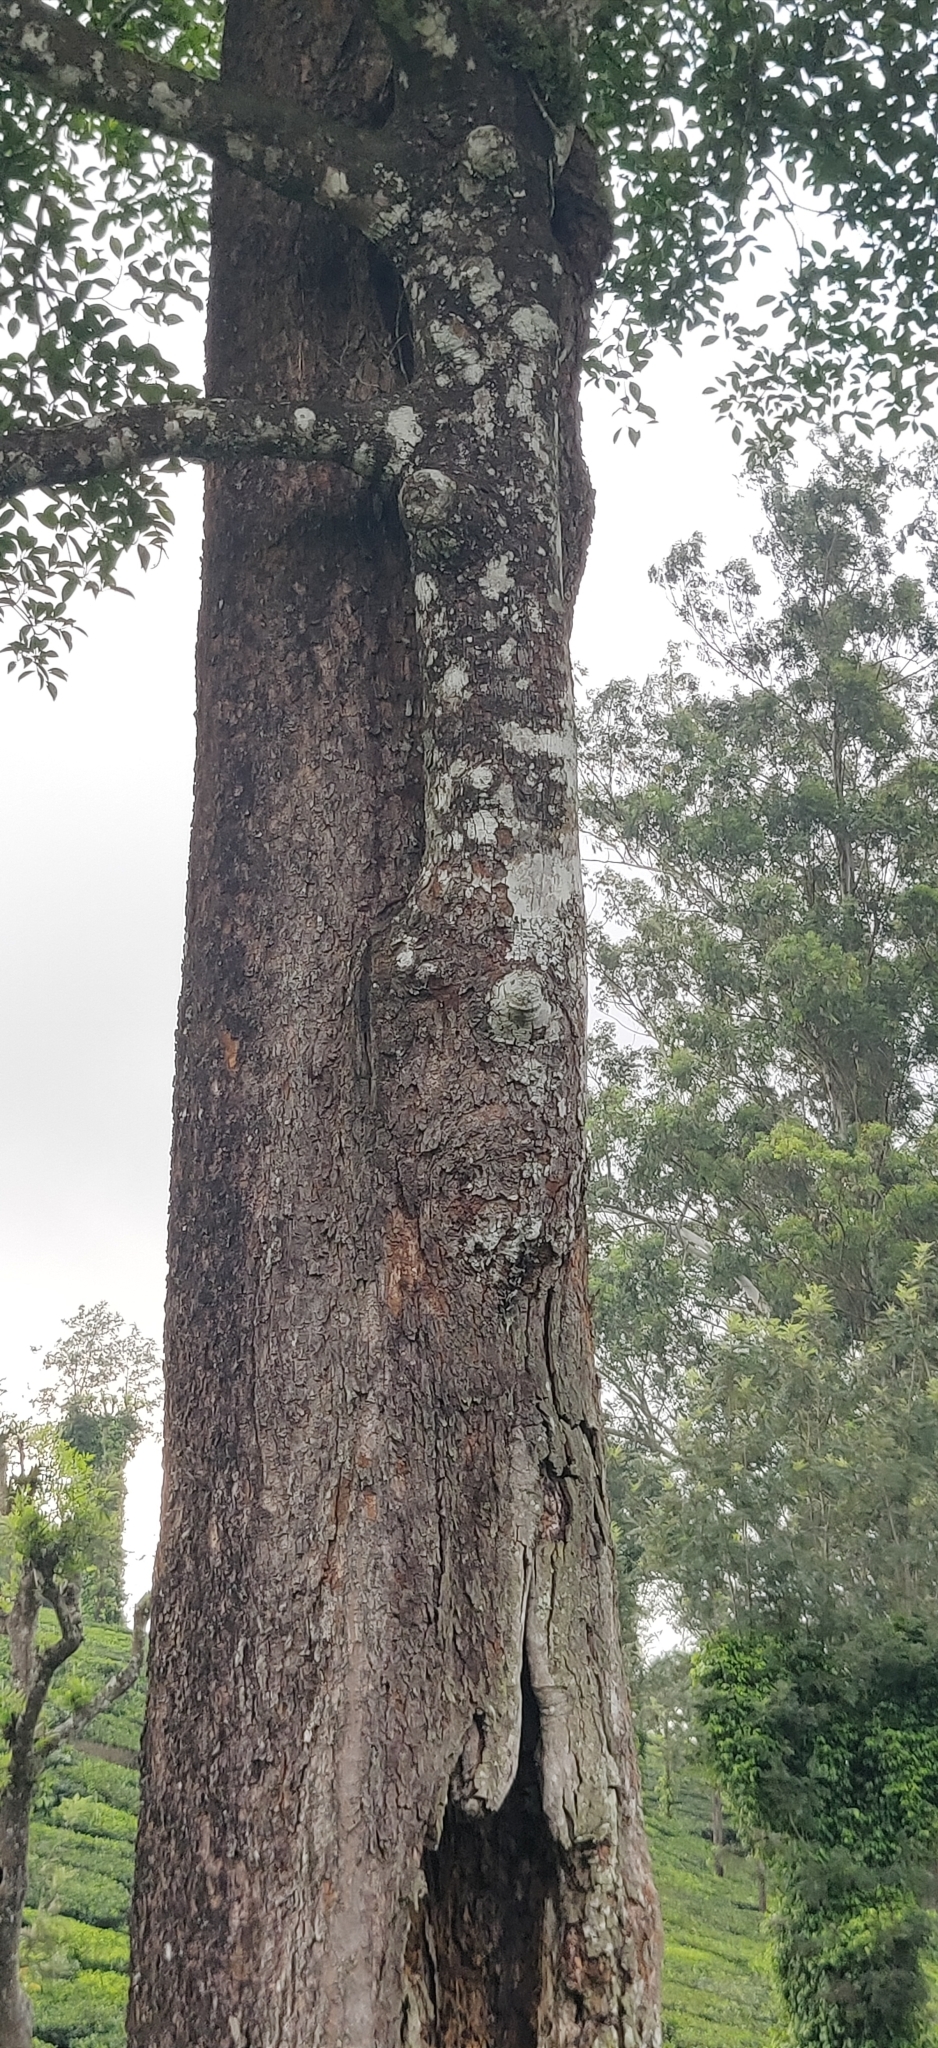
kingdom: Plantae
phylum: Tracheophyta
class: Magnoliopsida
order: Ericales
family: Sapotaceae
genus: Palaquium
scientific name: Palaquium ellipticum
